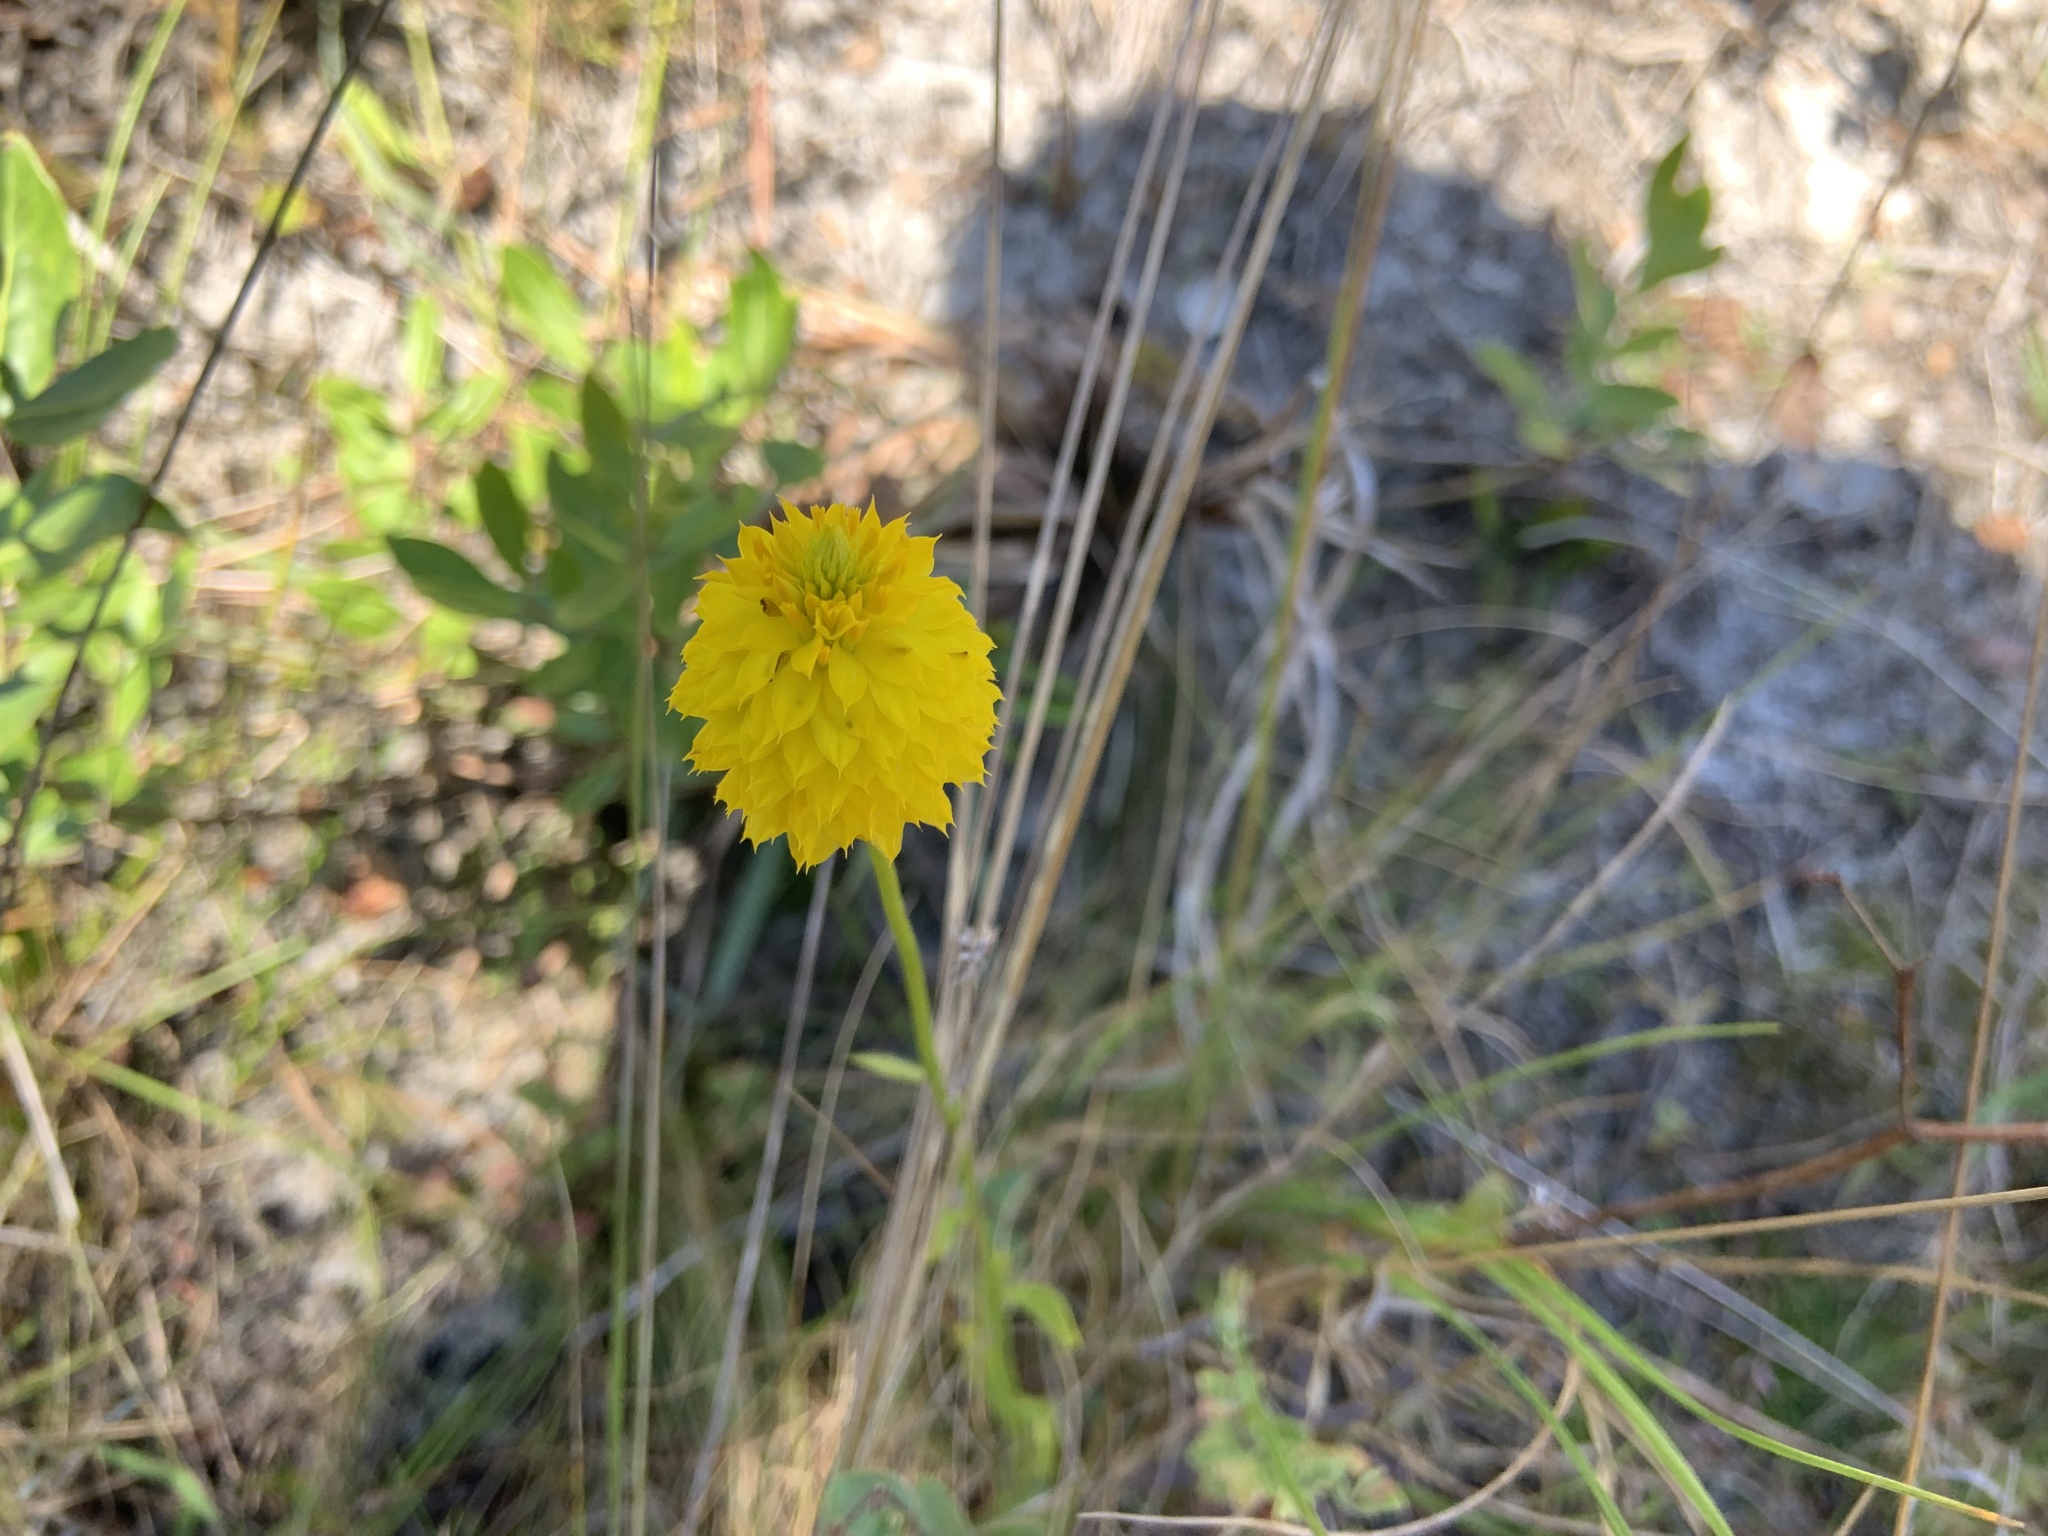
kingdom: Plantae
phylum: Tracheophyta
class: Magnoliopsida
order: Fabales
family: Polygalaceae
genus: Polygala
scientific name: Polygala rugelii
